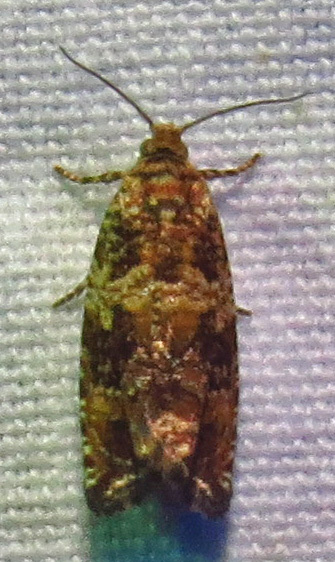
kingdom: Animalia
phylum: Arthropoda
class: Insecta
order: Lepidoptera
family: Tortricidae
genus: Celypha
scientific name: Celypha cespitana
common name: Thyme marble
